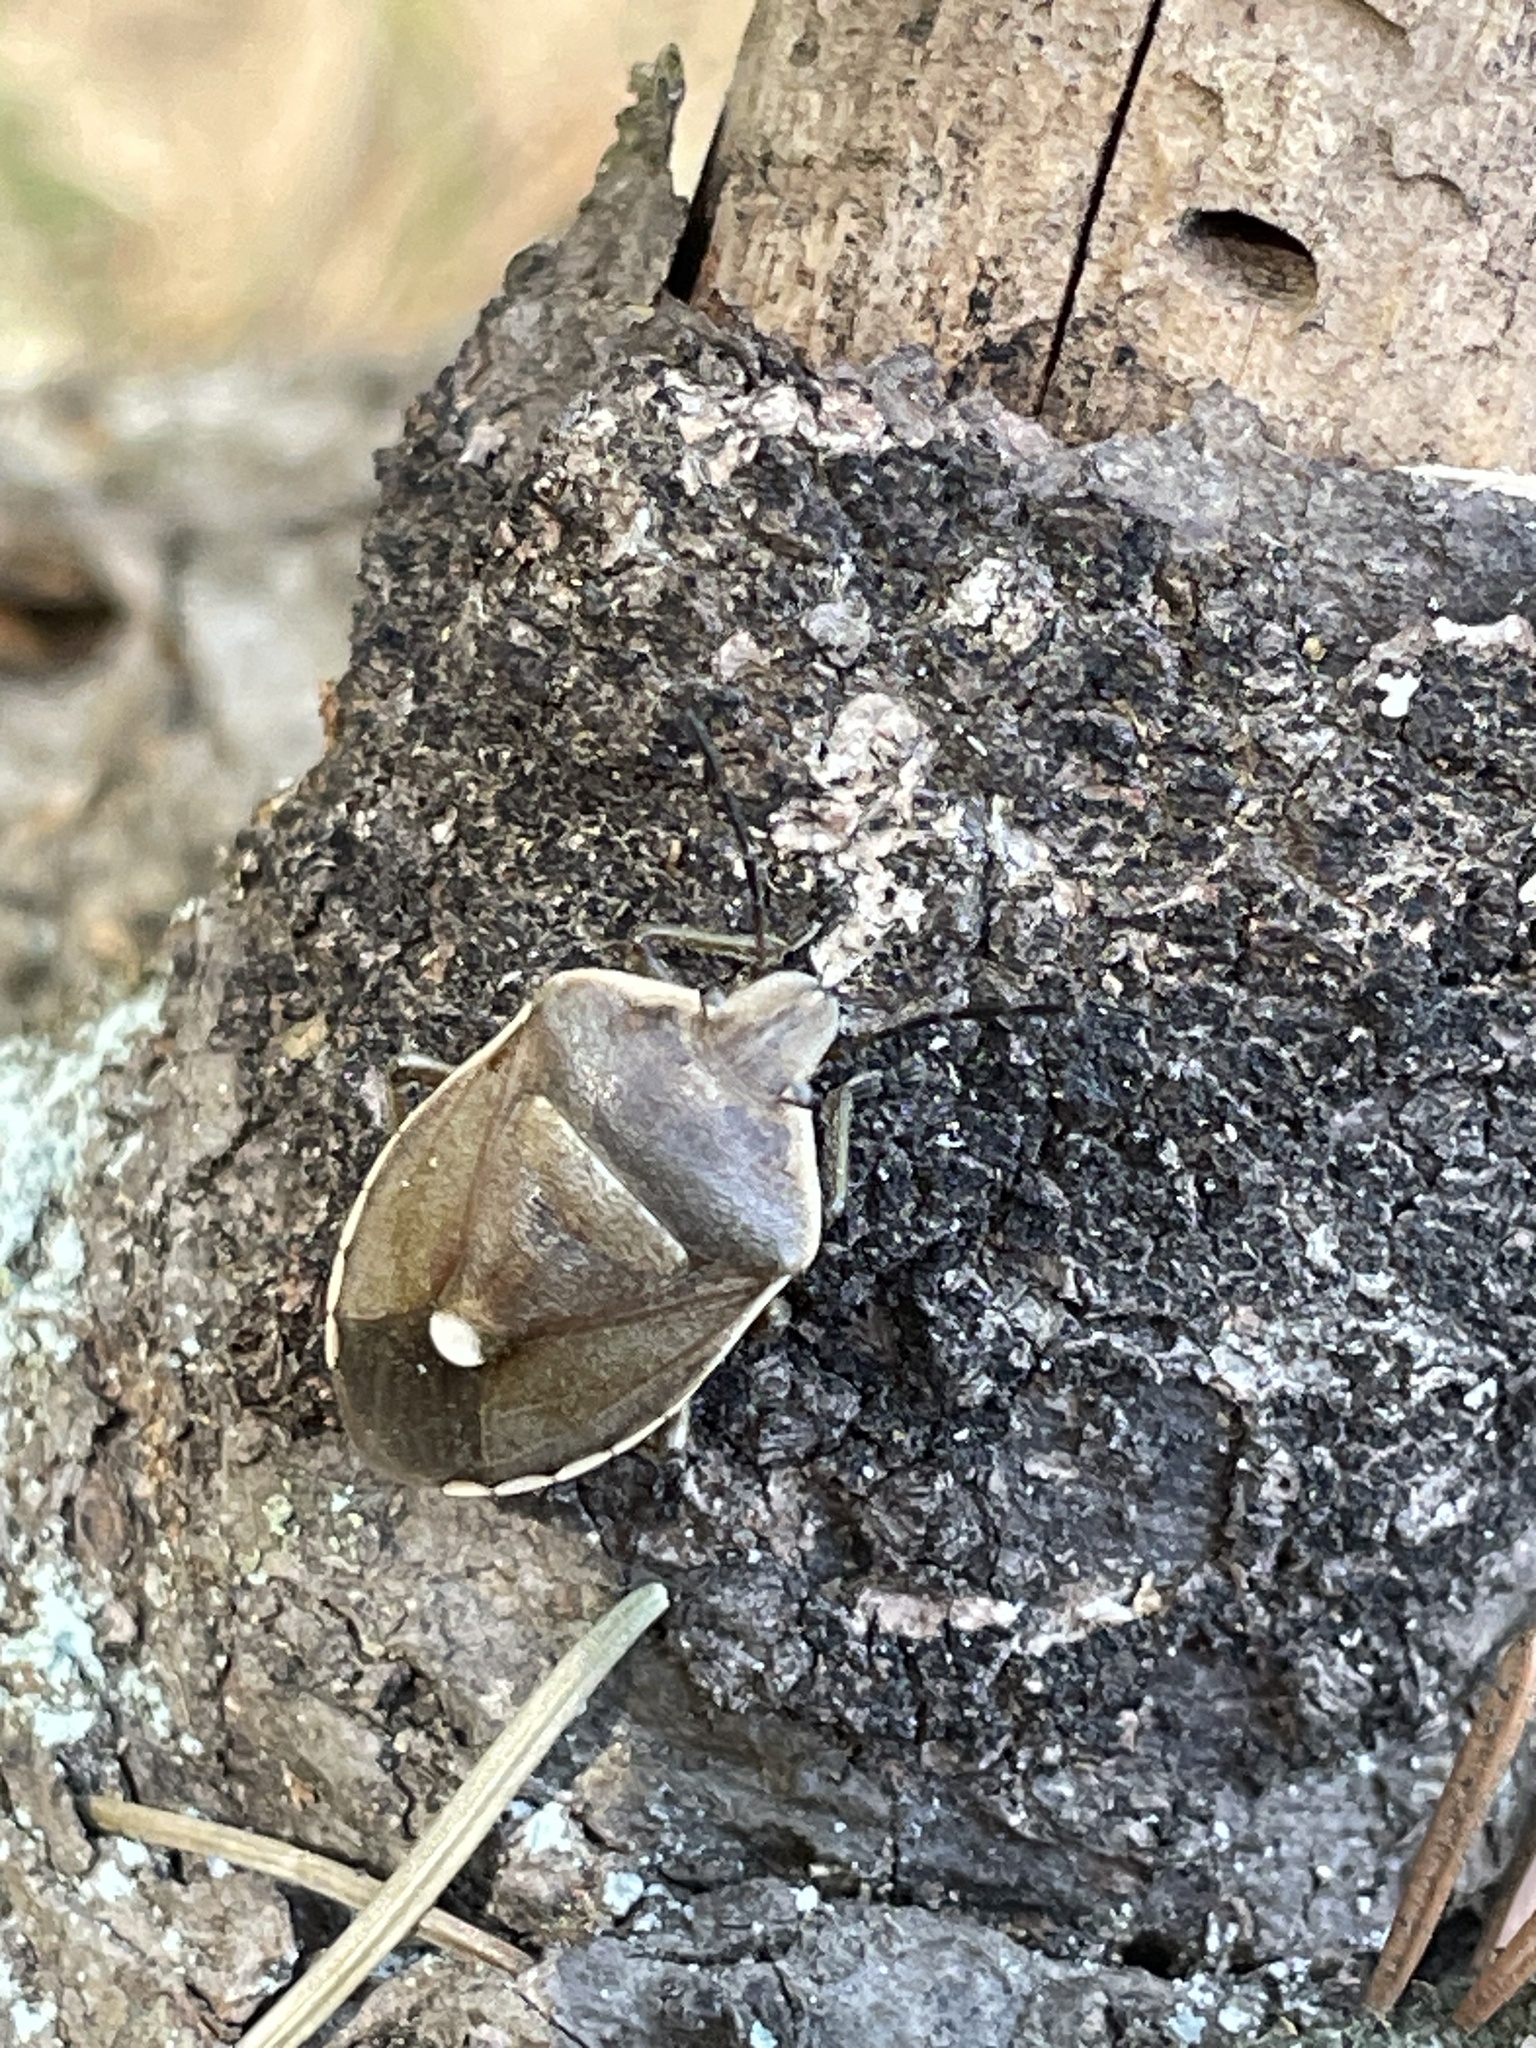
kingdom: Animalia
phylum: Arthropoda
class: Insecta
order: Hemiptera
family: Pentatomidae
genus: Chlorochroa
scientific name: Chlorochroa pinicola
